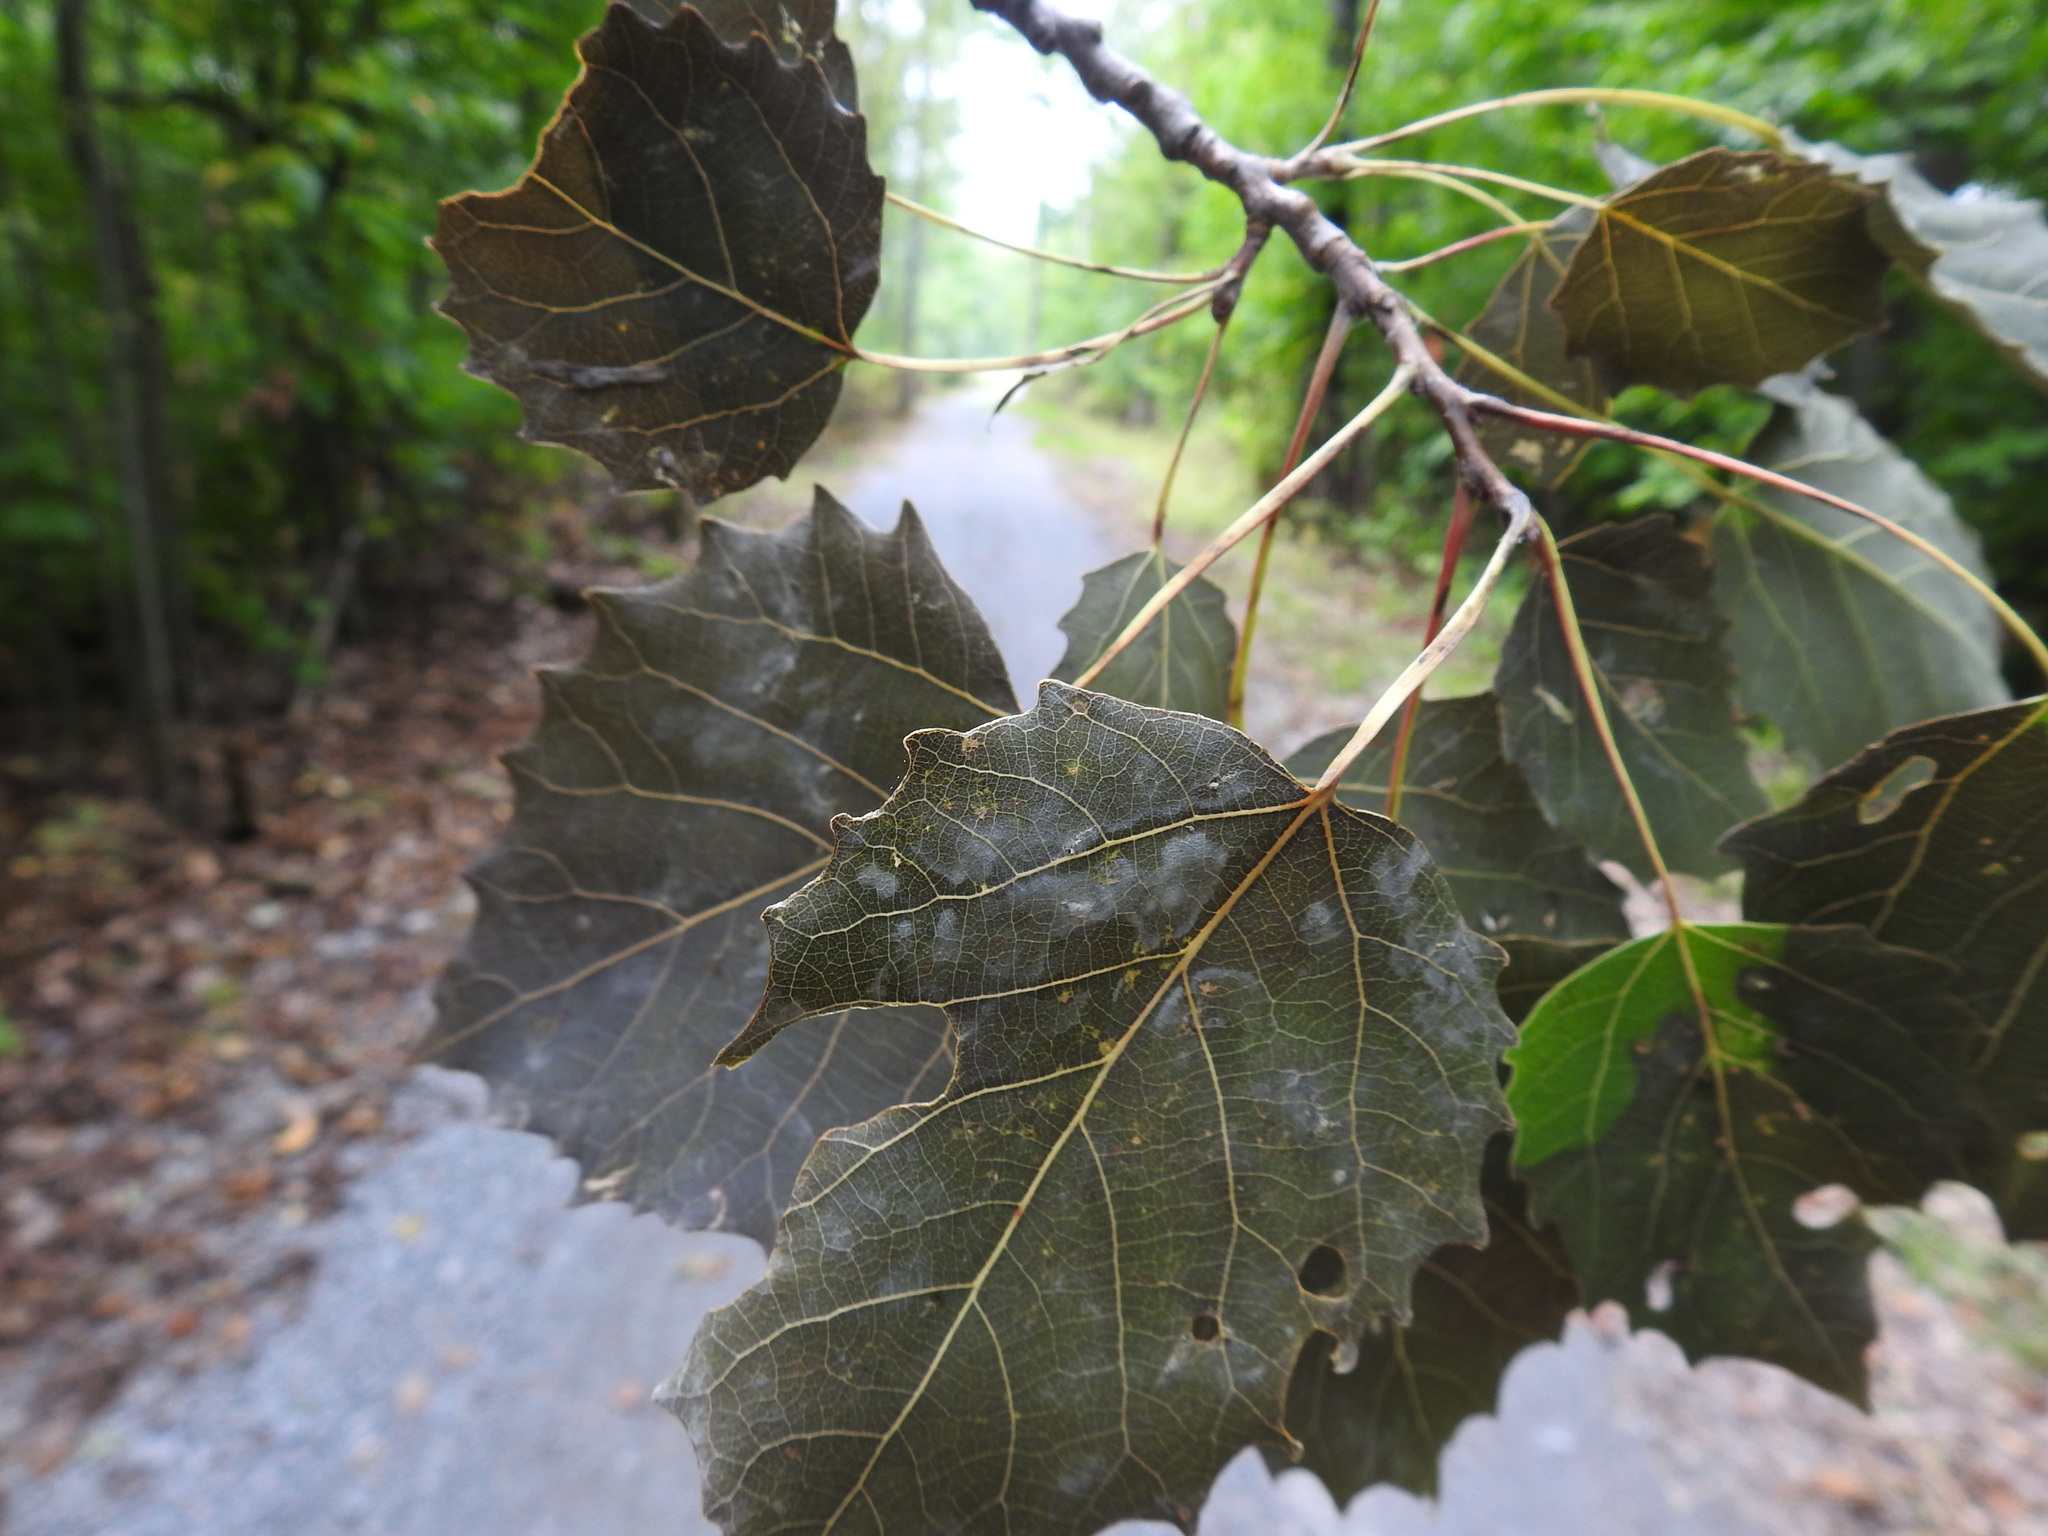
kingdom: Plantae
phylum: Tracheophyta
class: Magnoliopsida
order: Malpighiales
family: Salicaceae
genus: Populus
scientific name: Populus grandidentata
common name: Bigtooth aspen
